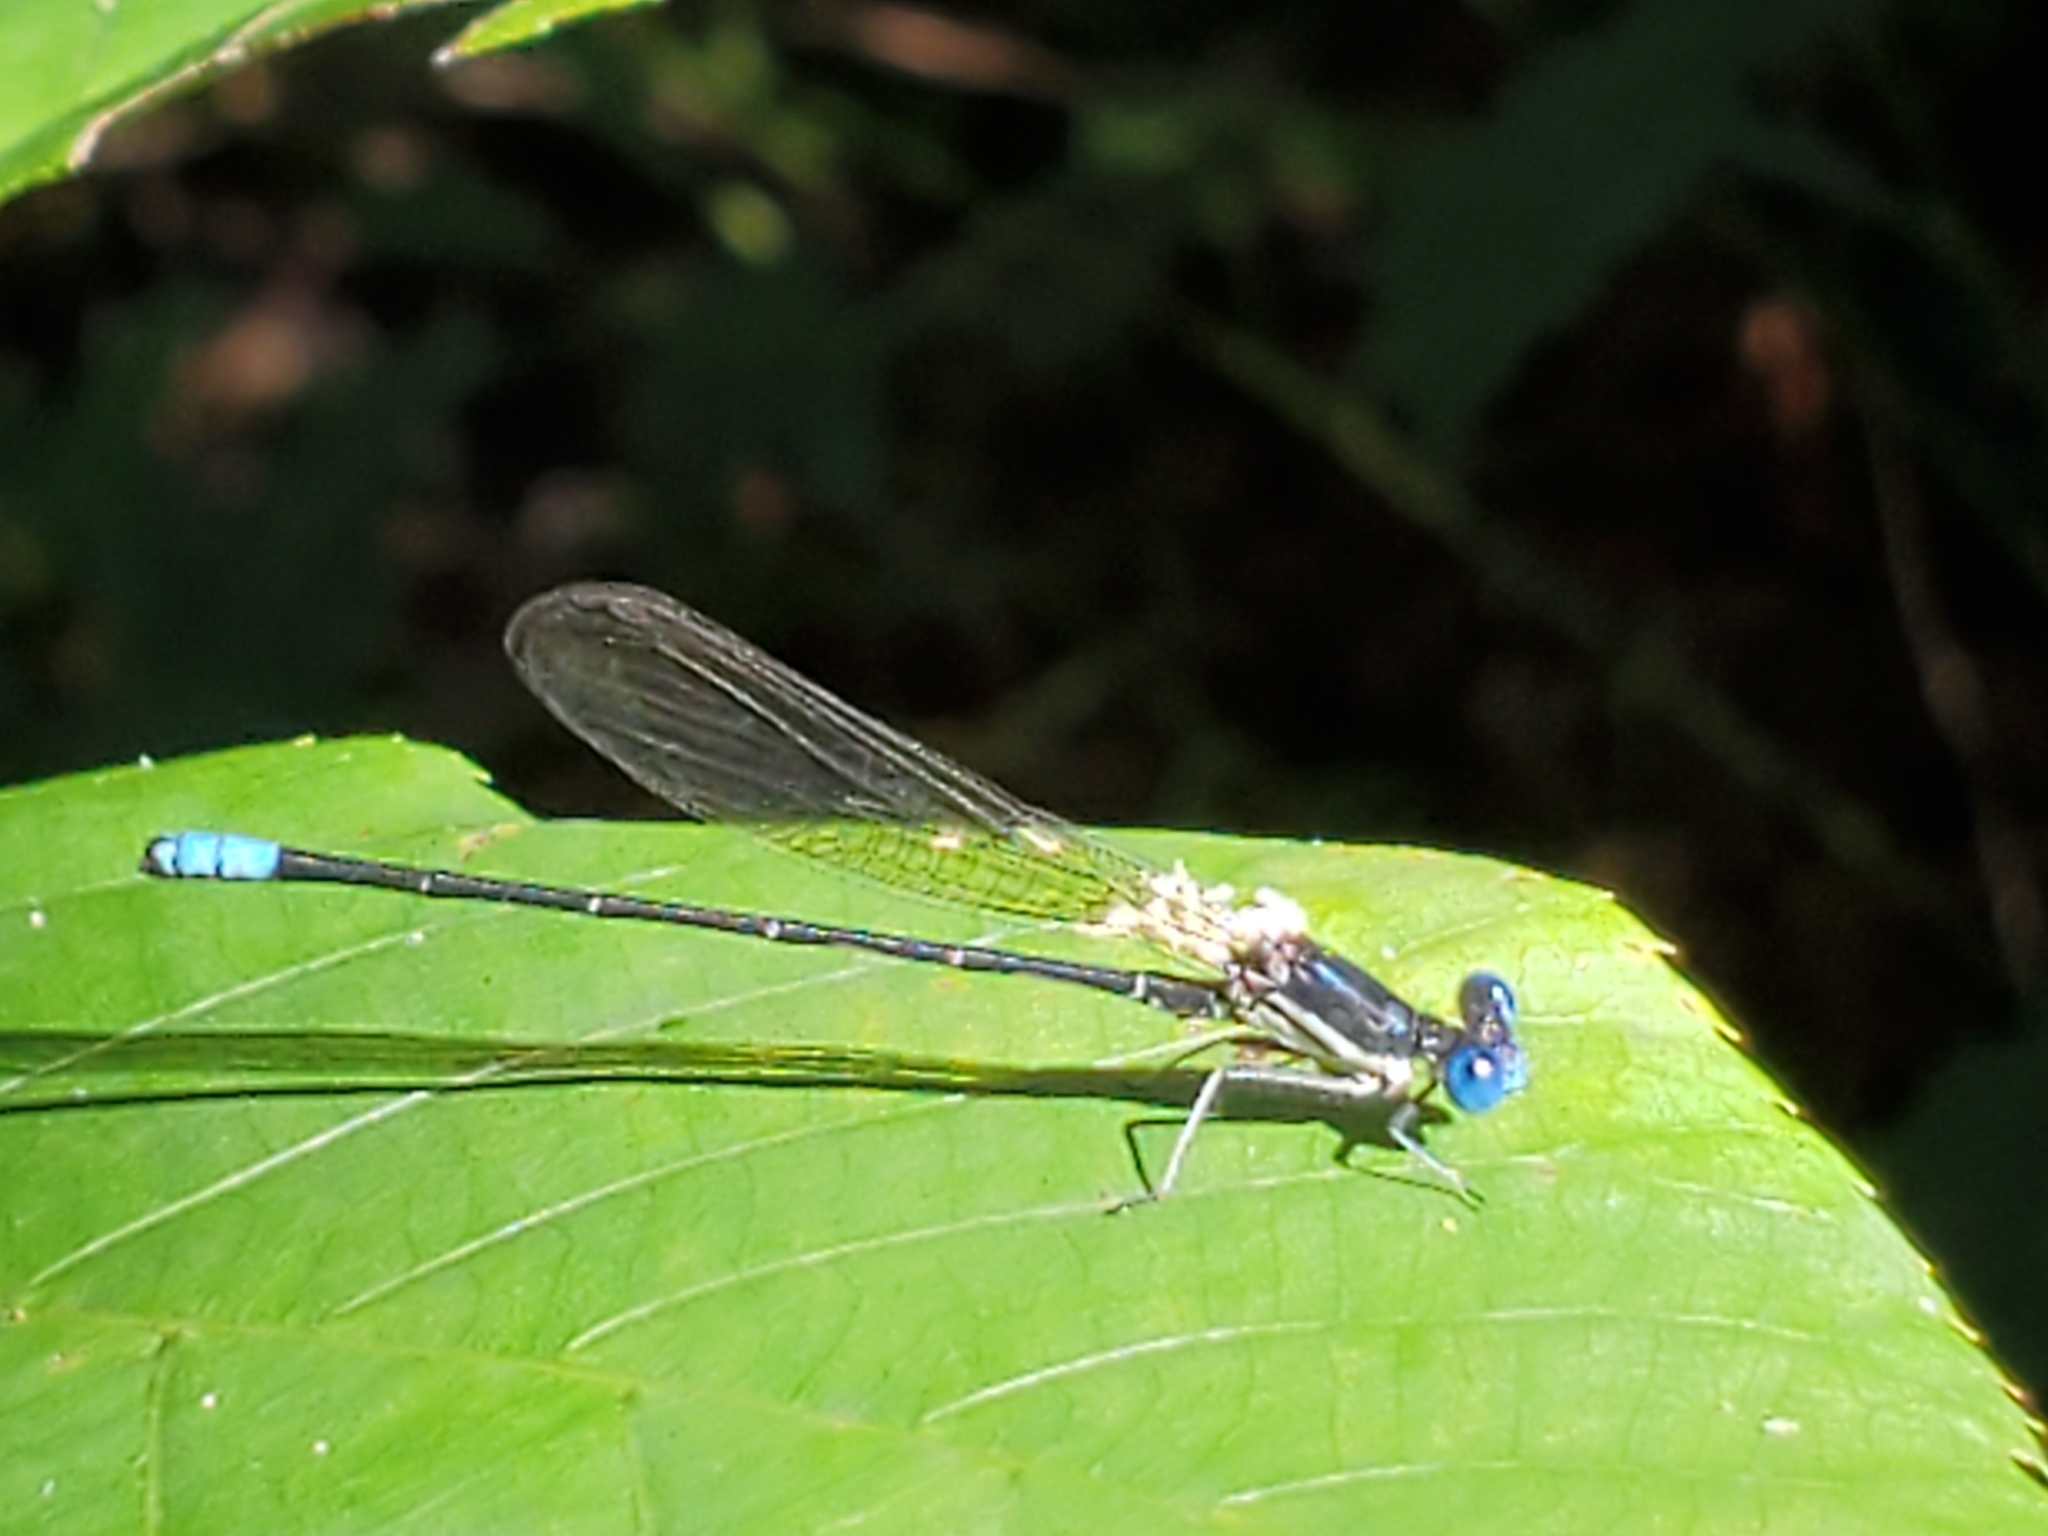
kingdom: Animalia
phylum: Arthropoda
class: Insecta
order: Odonata
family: Coenagrionidae
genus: Argia
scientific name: Argia sedula
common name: Blue-ringed dancer
